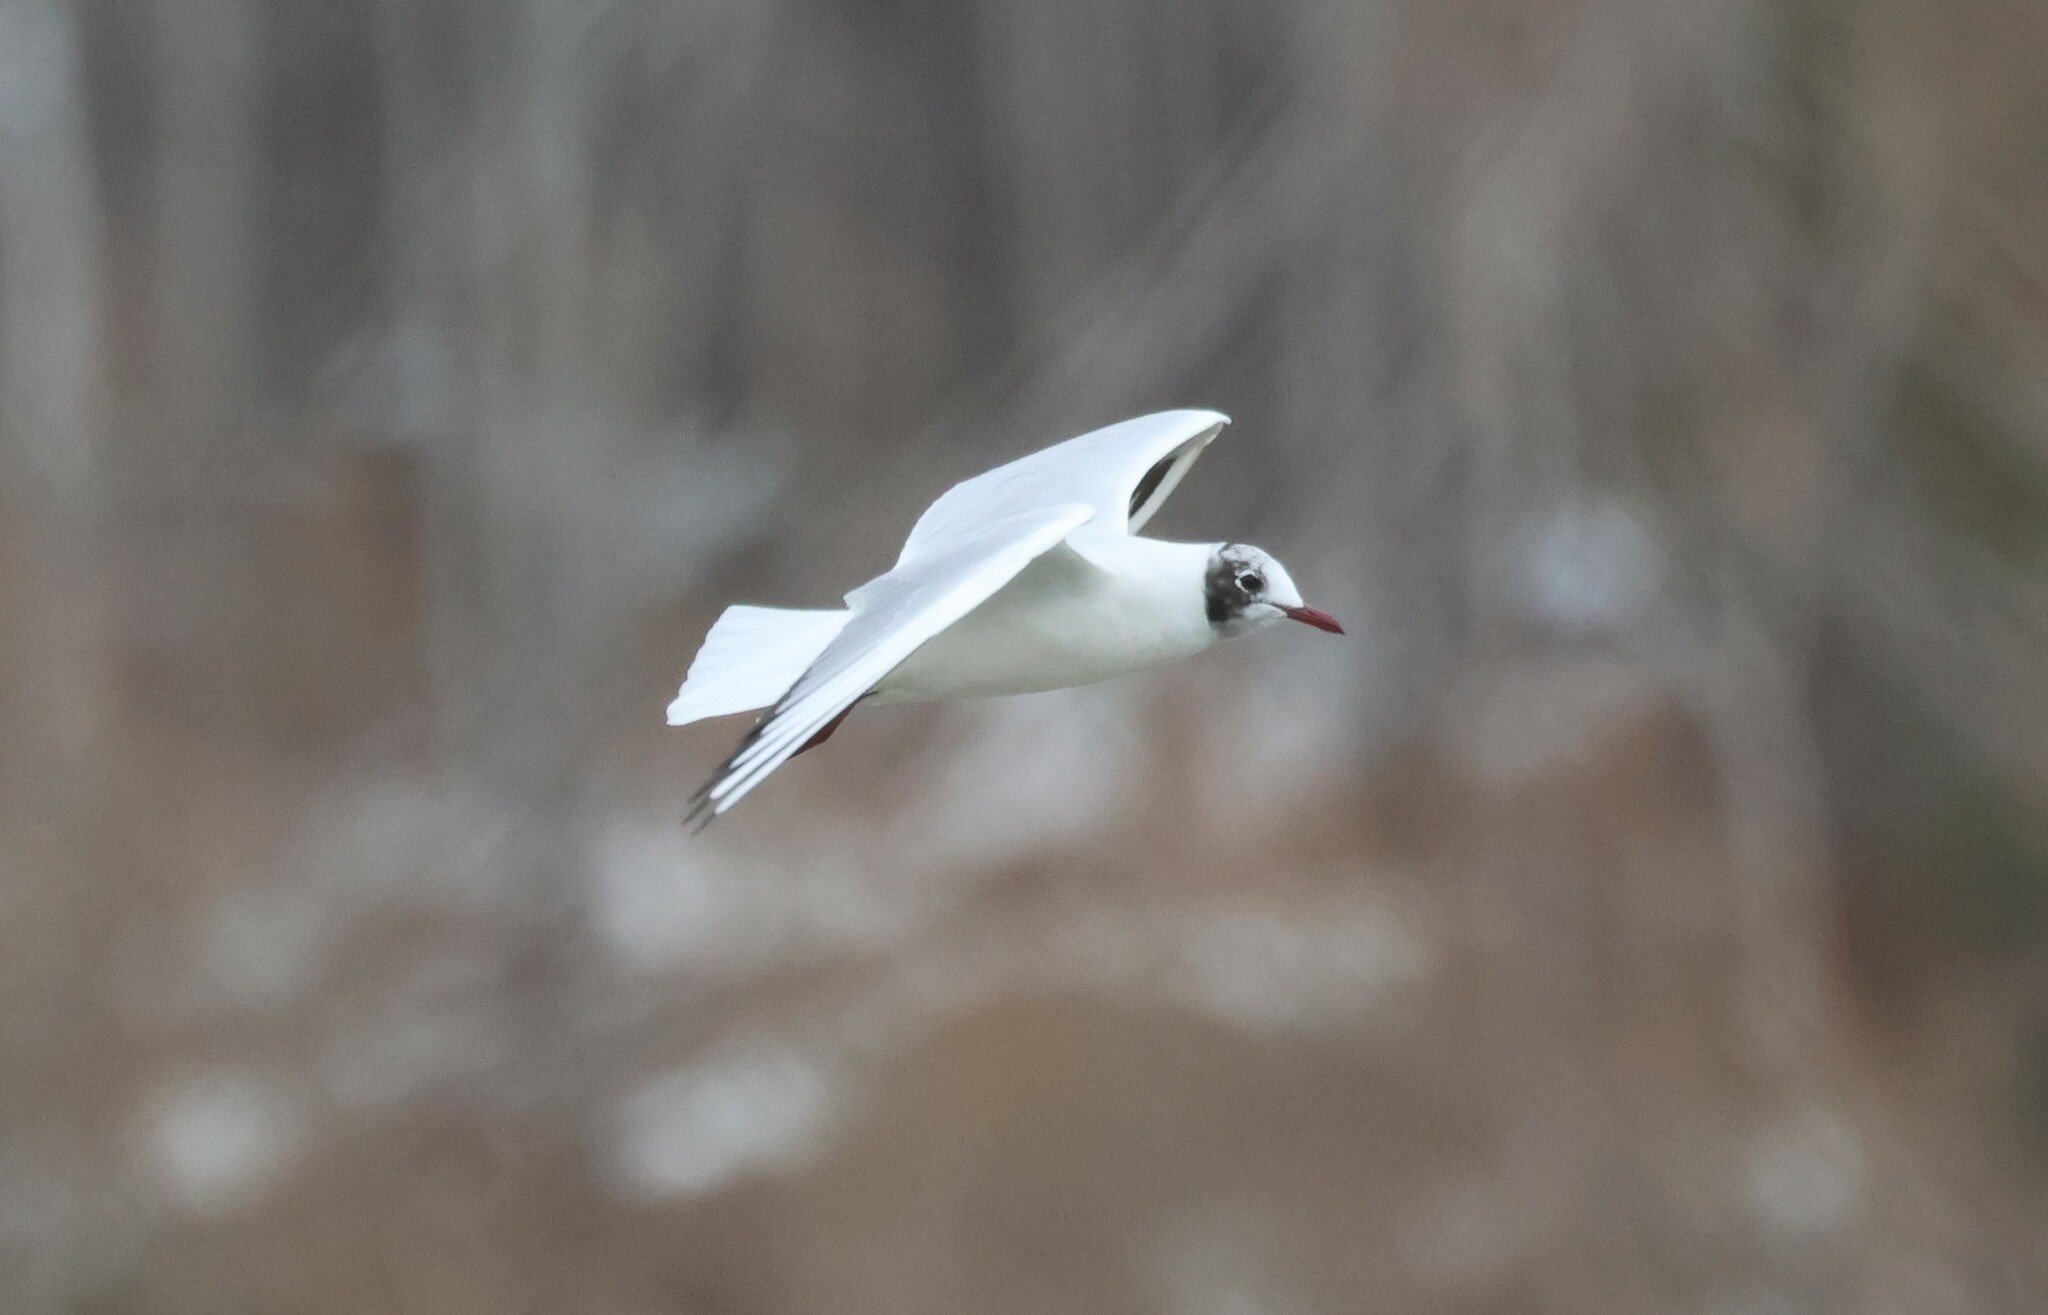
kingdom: Animalia
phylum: Chordata
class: Aves
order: Charadriiformes
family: Laridae
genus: Chroicocephalus
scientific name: Chroicocephalus ridibundus
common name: Black-headed gull
